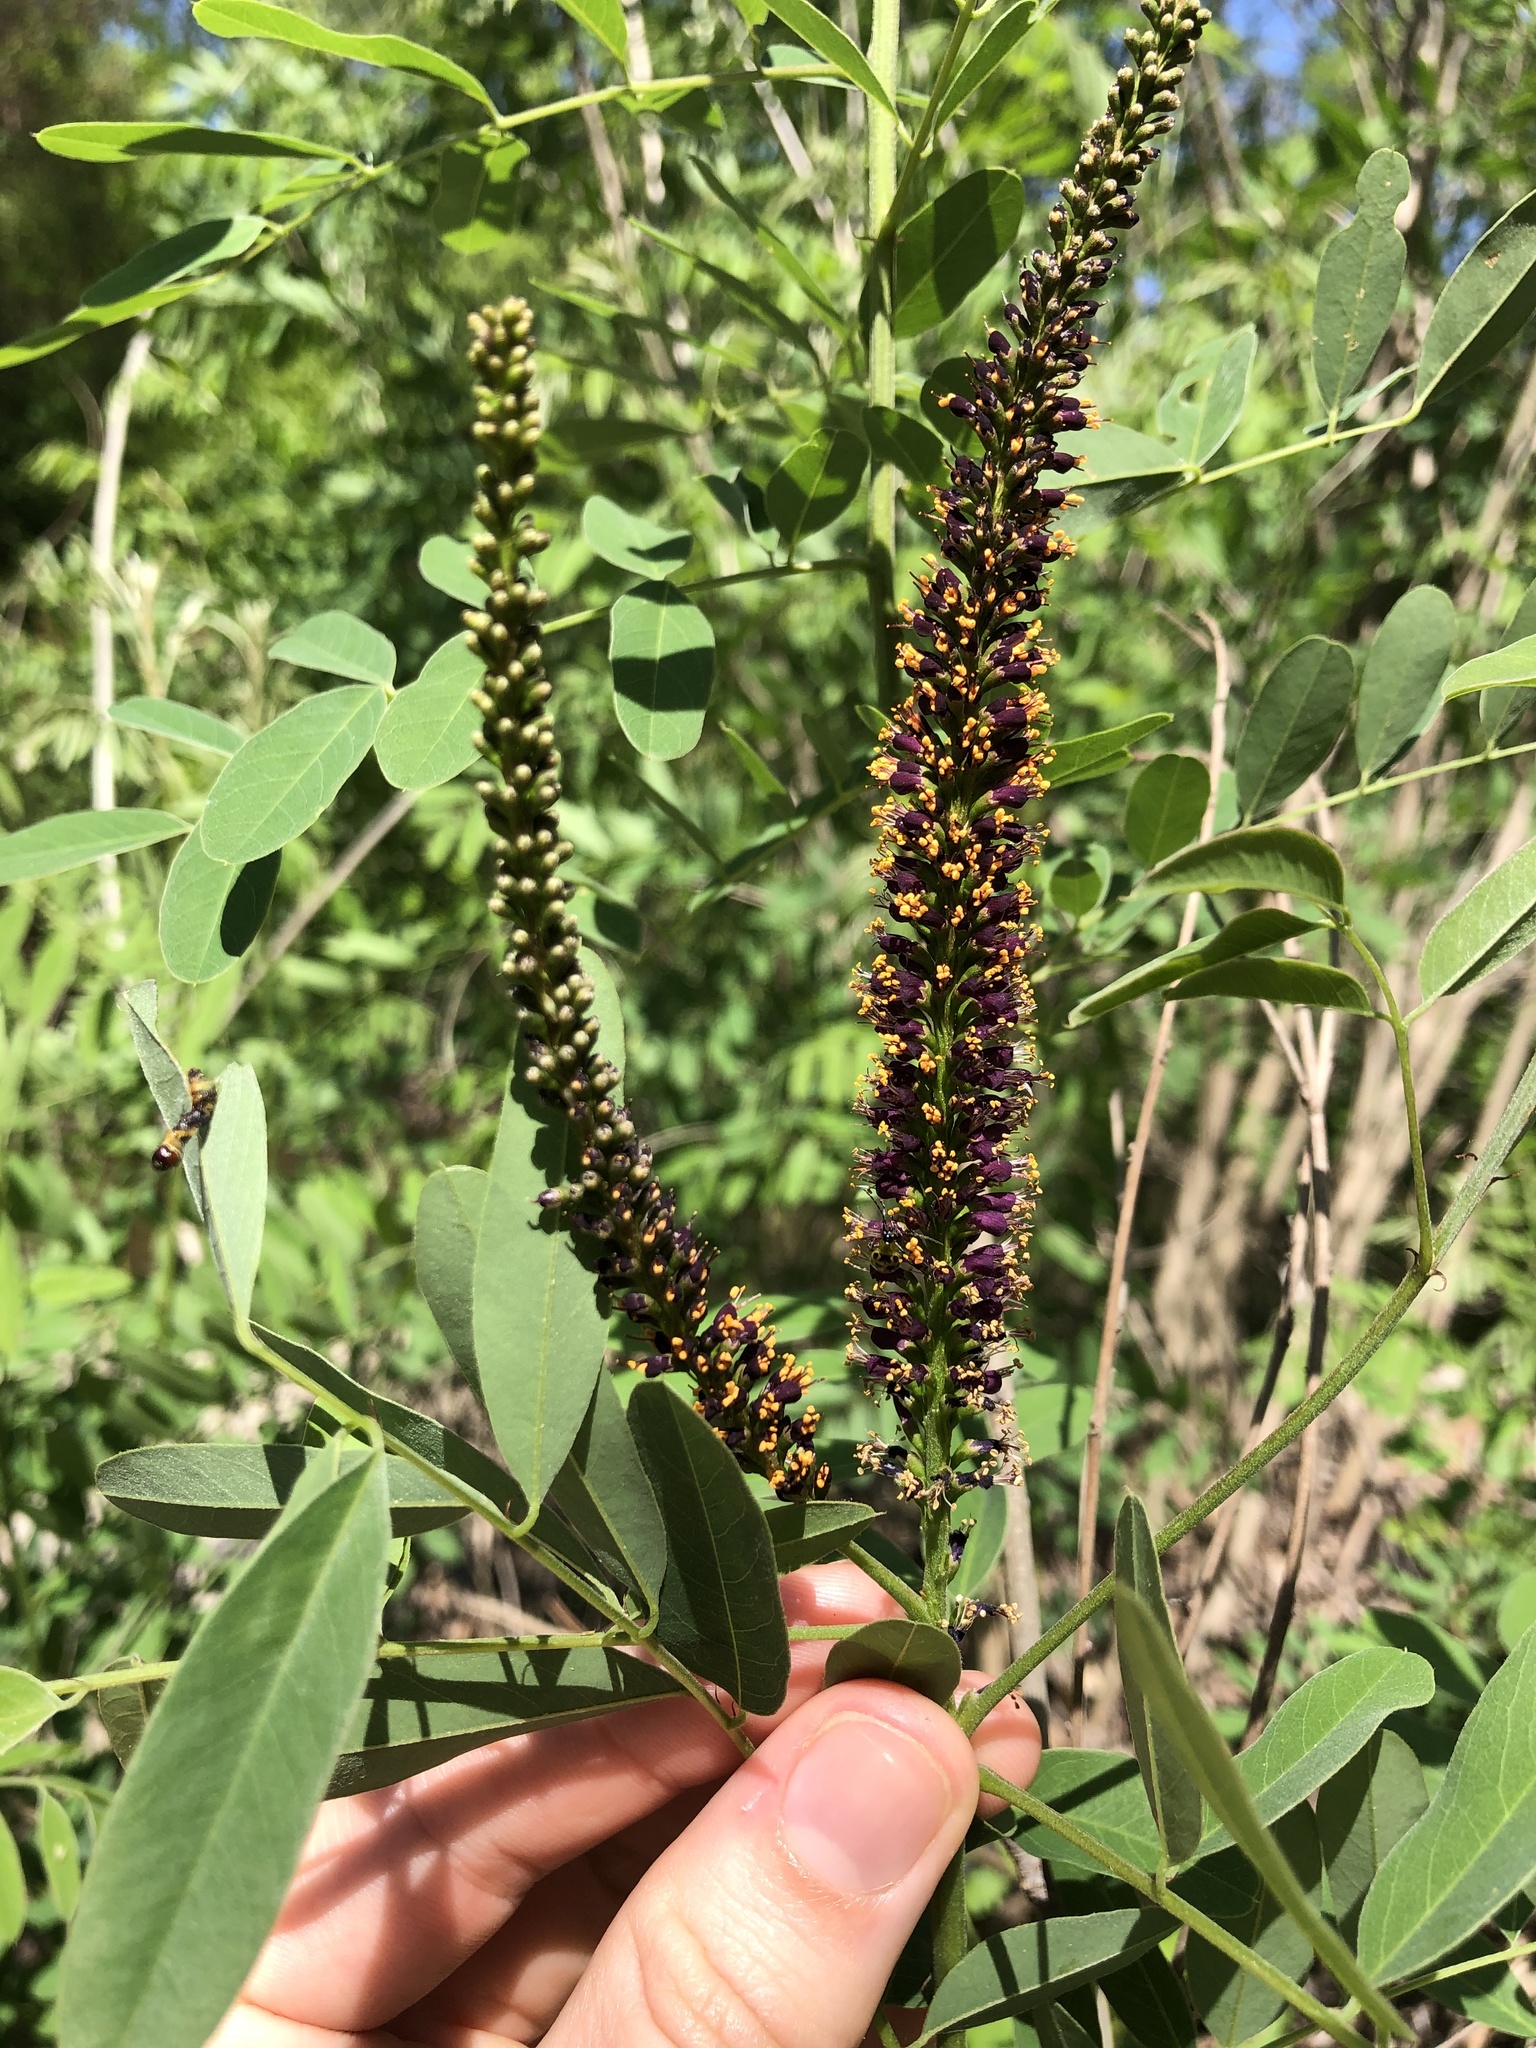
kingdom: Plantae
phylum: Tracheophyta
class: Magnoliopsida
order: Fabales
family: Fabaceae
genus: Amorpha
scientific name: Amorpha fruticosa
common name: False indigo
